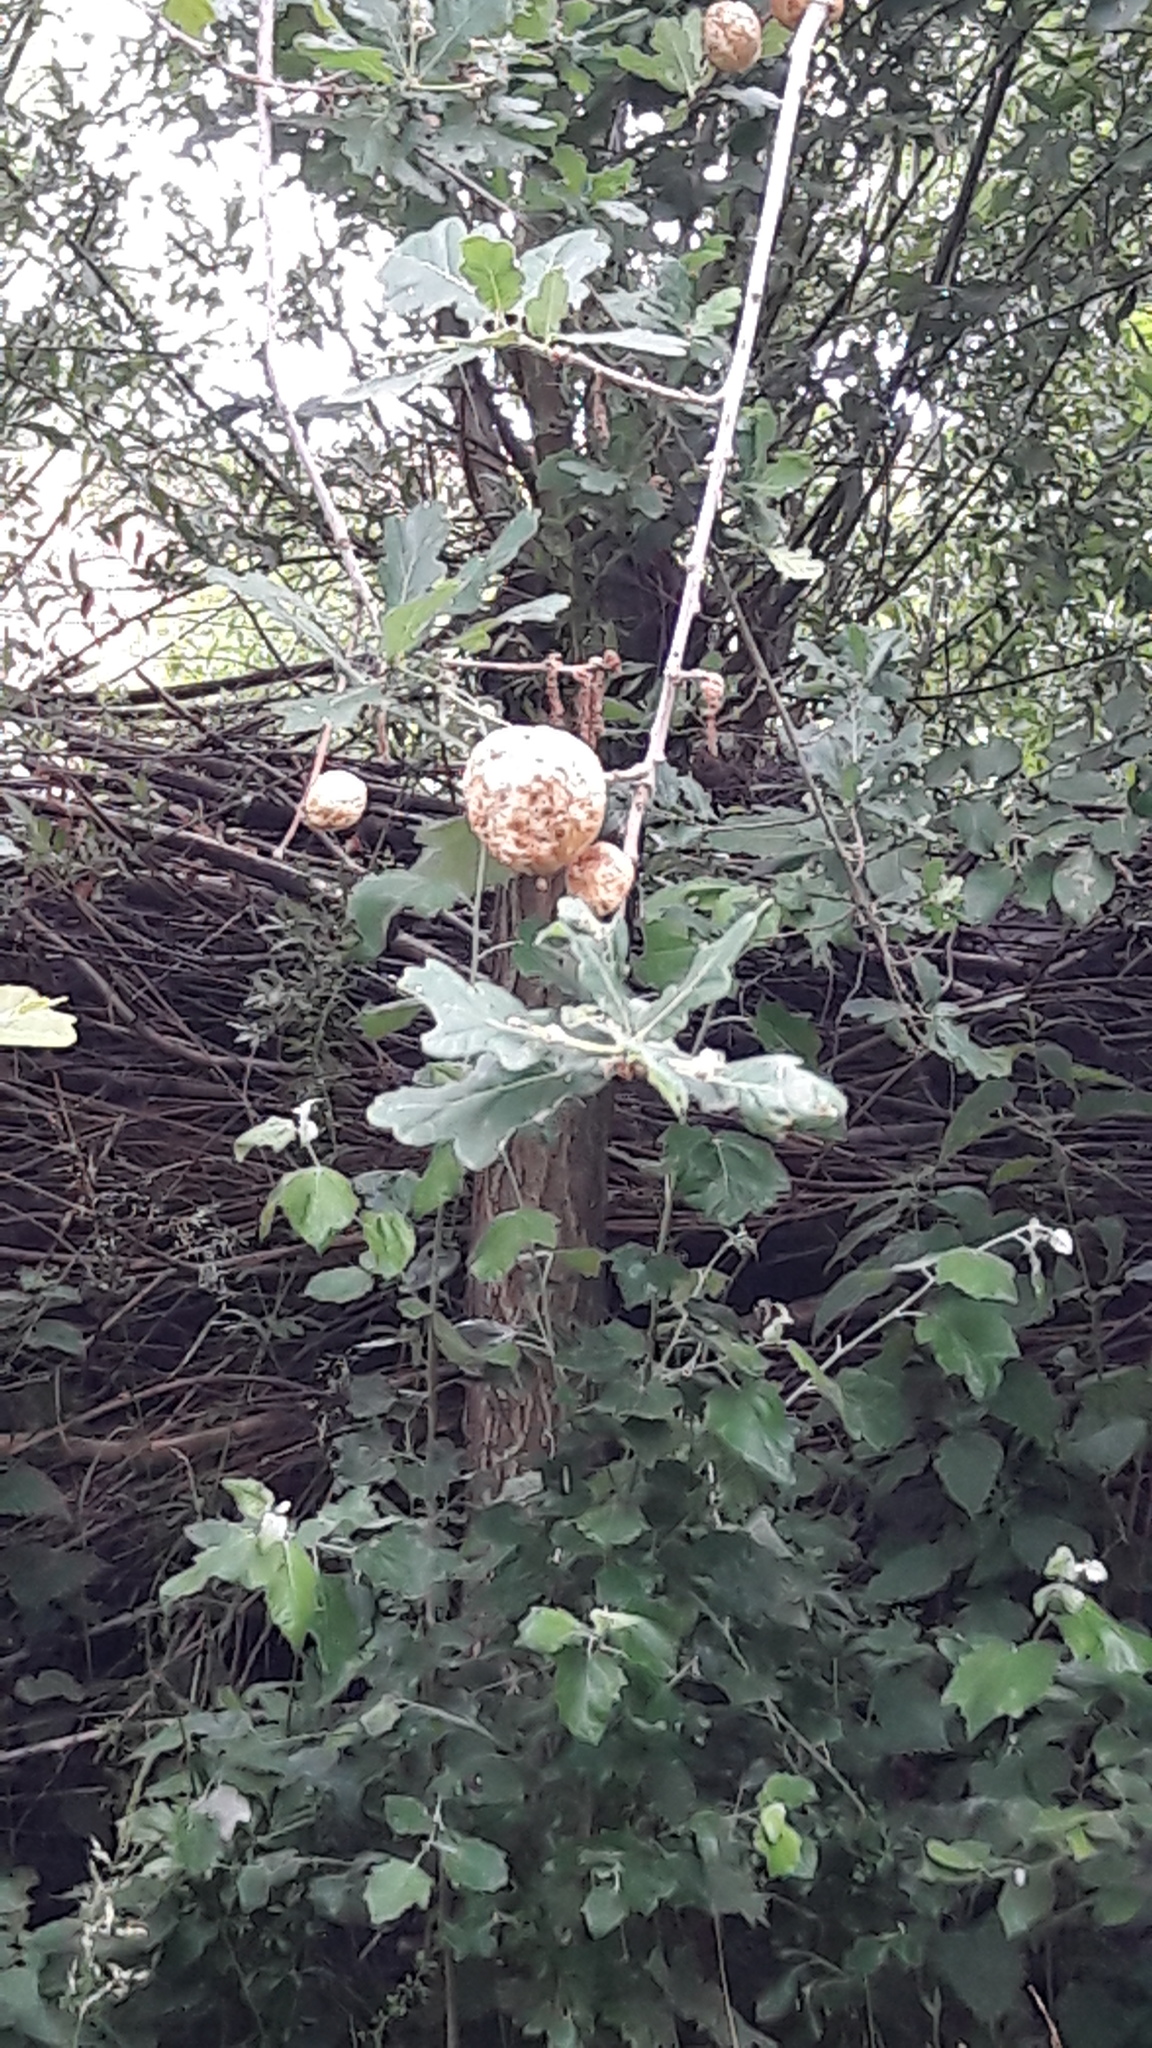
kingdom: Animalia
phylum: Arthropoda
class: Insecta
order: Hymenoptera
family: Vespidae
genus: Vespa
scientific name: Vespa crabro
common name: Hornet
